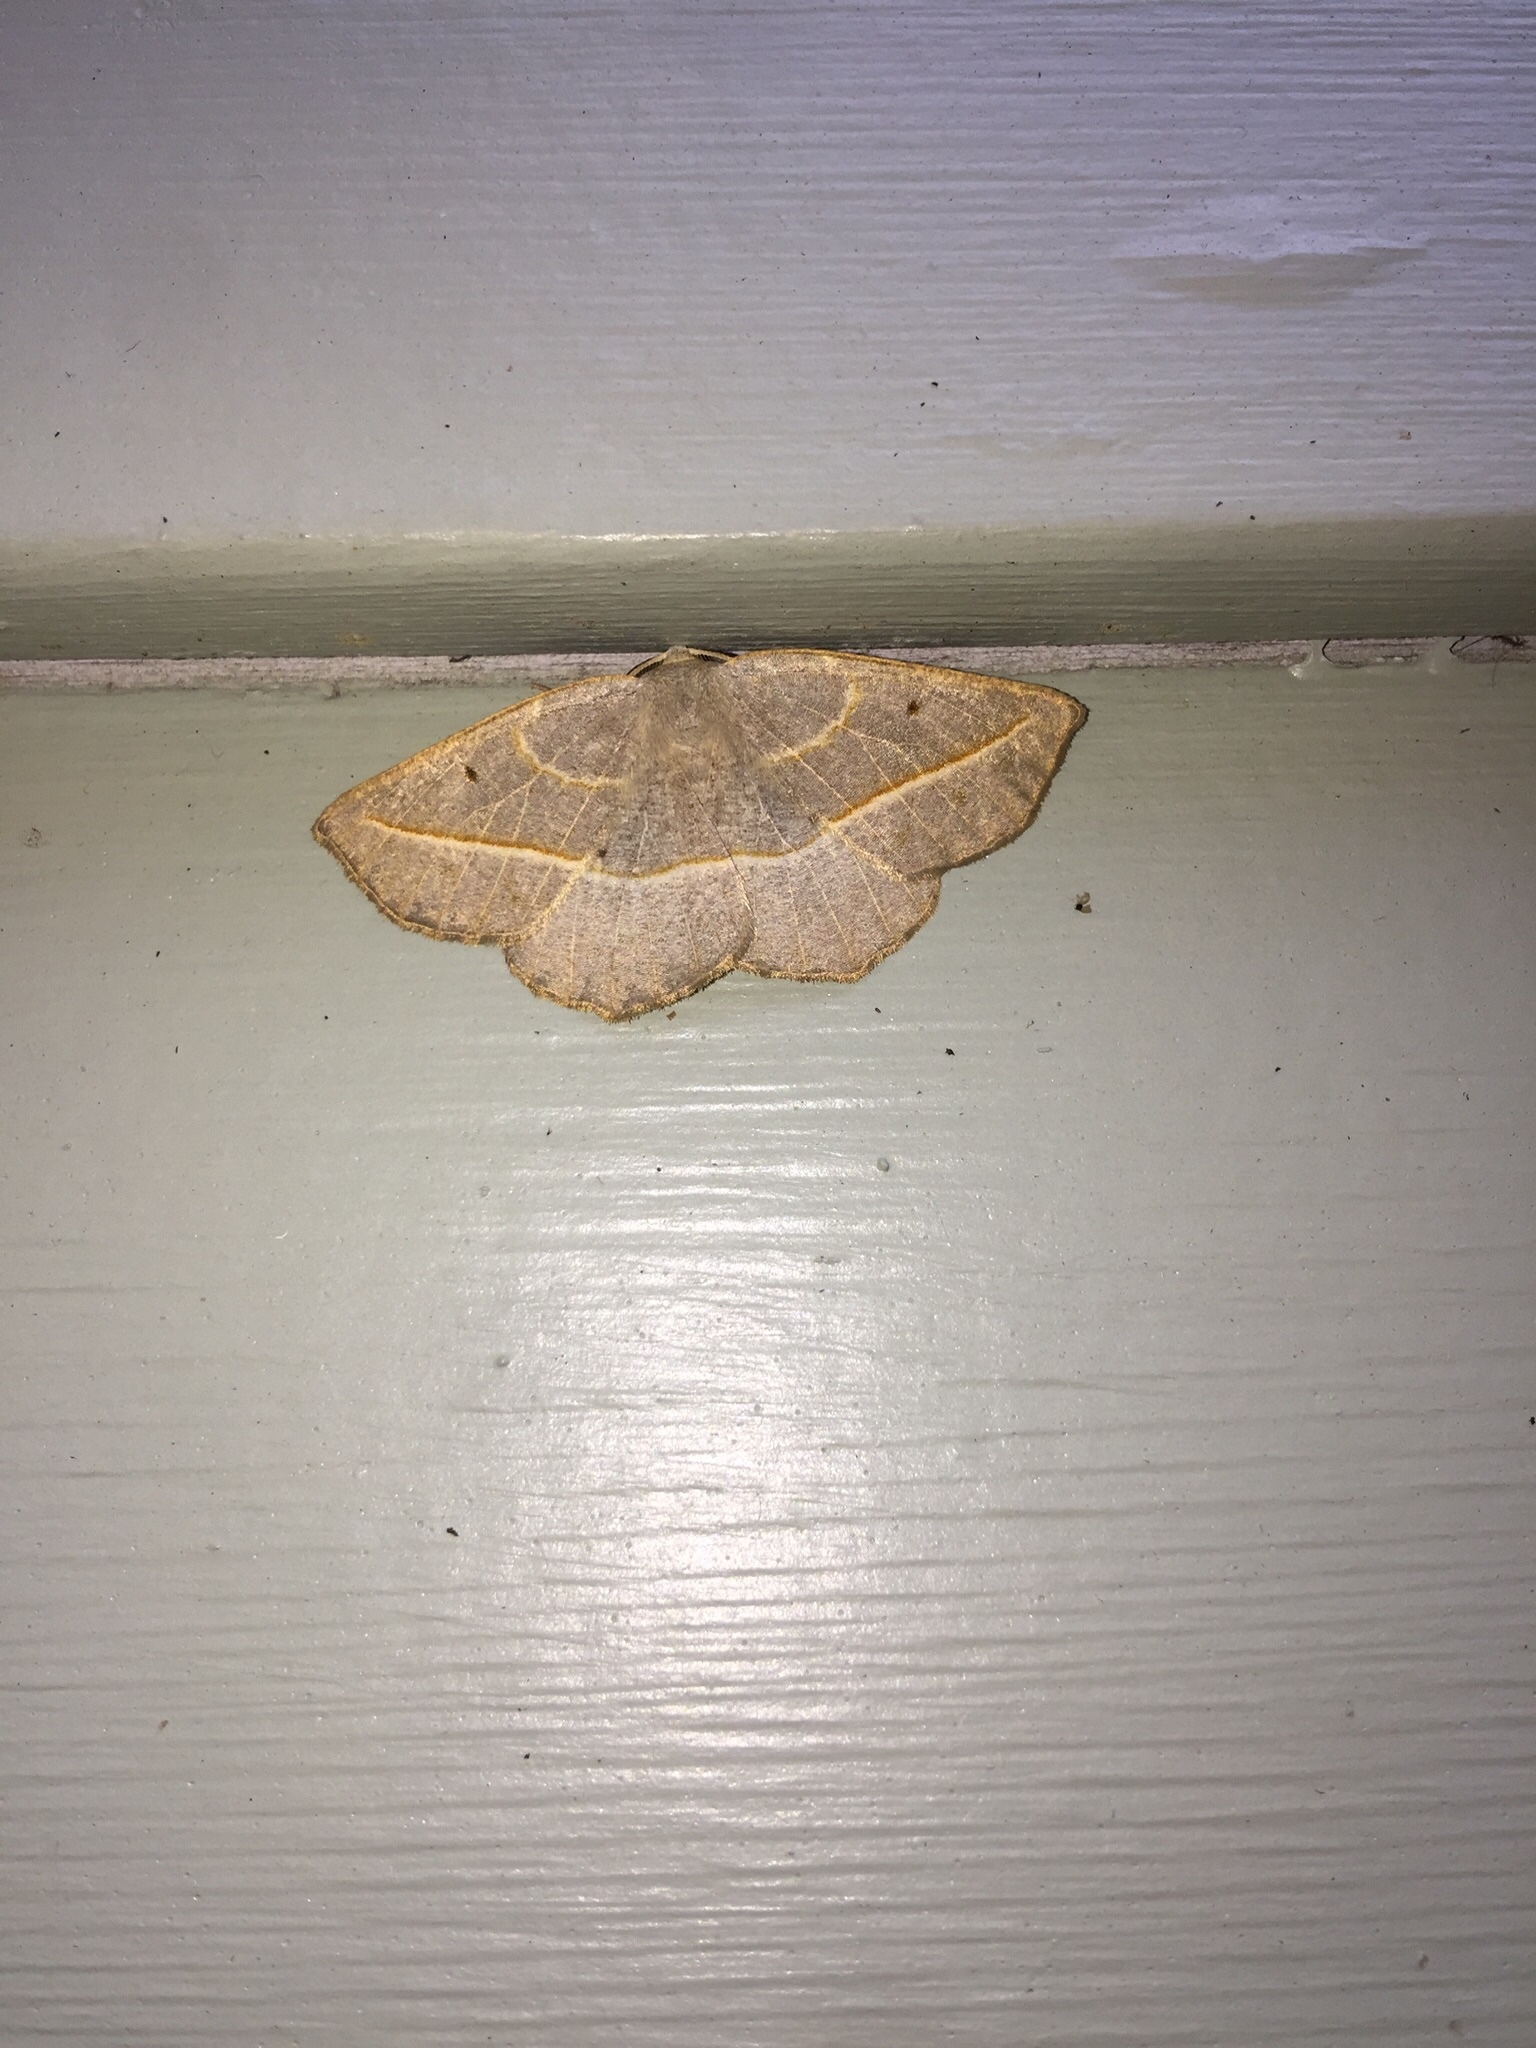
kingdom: Animalia
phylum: Arthropoda
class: Insecta
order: Lepidoptera
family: Geometridae
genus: Eusarca
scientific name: Eusarca confusaria
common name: Confused eusarca
